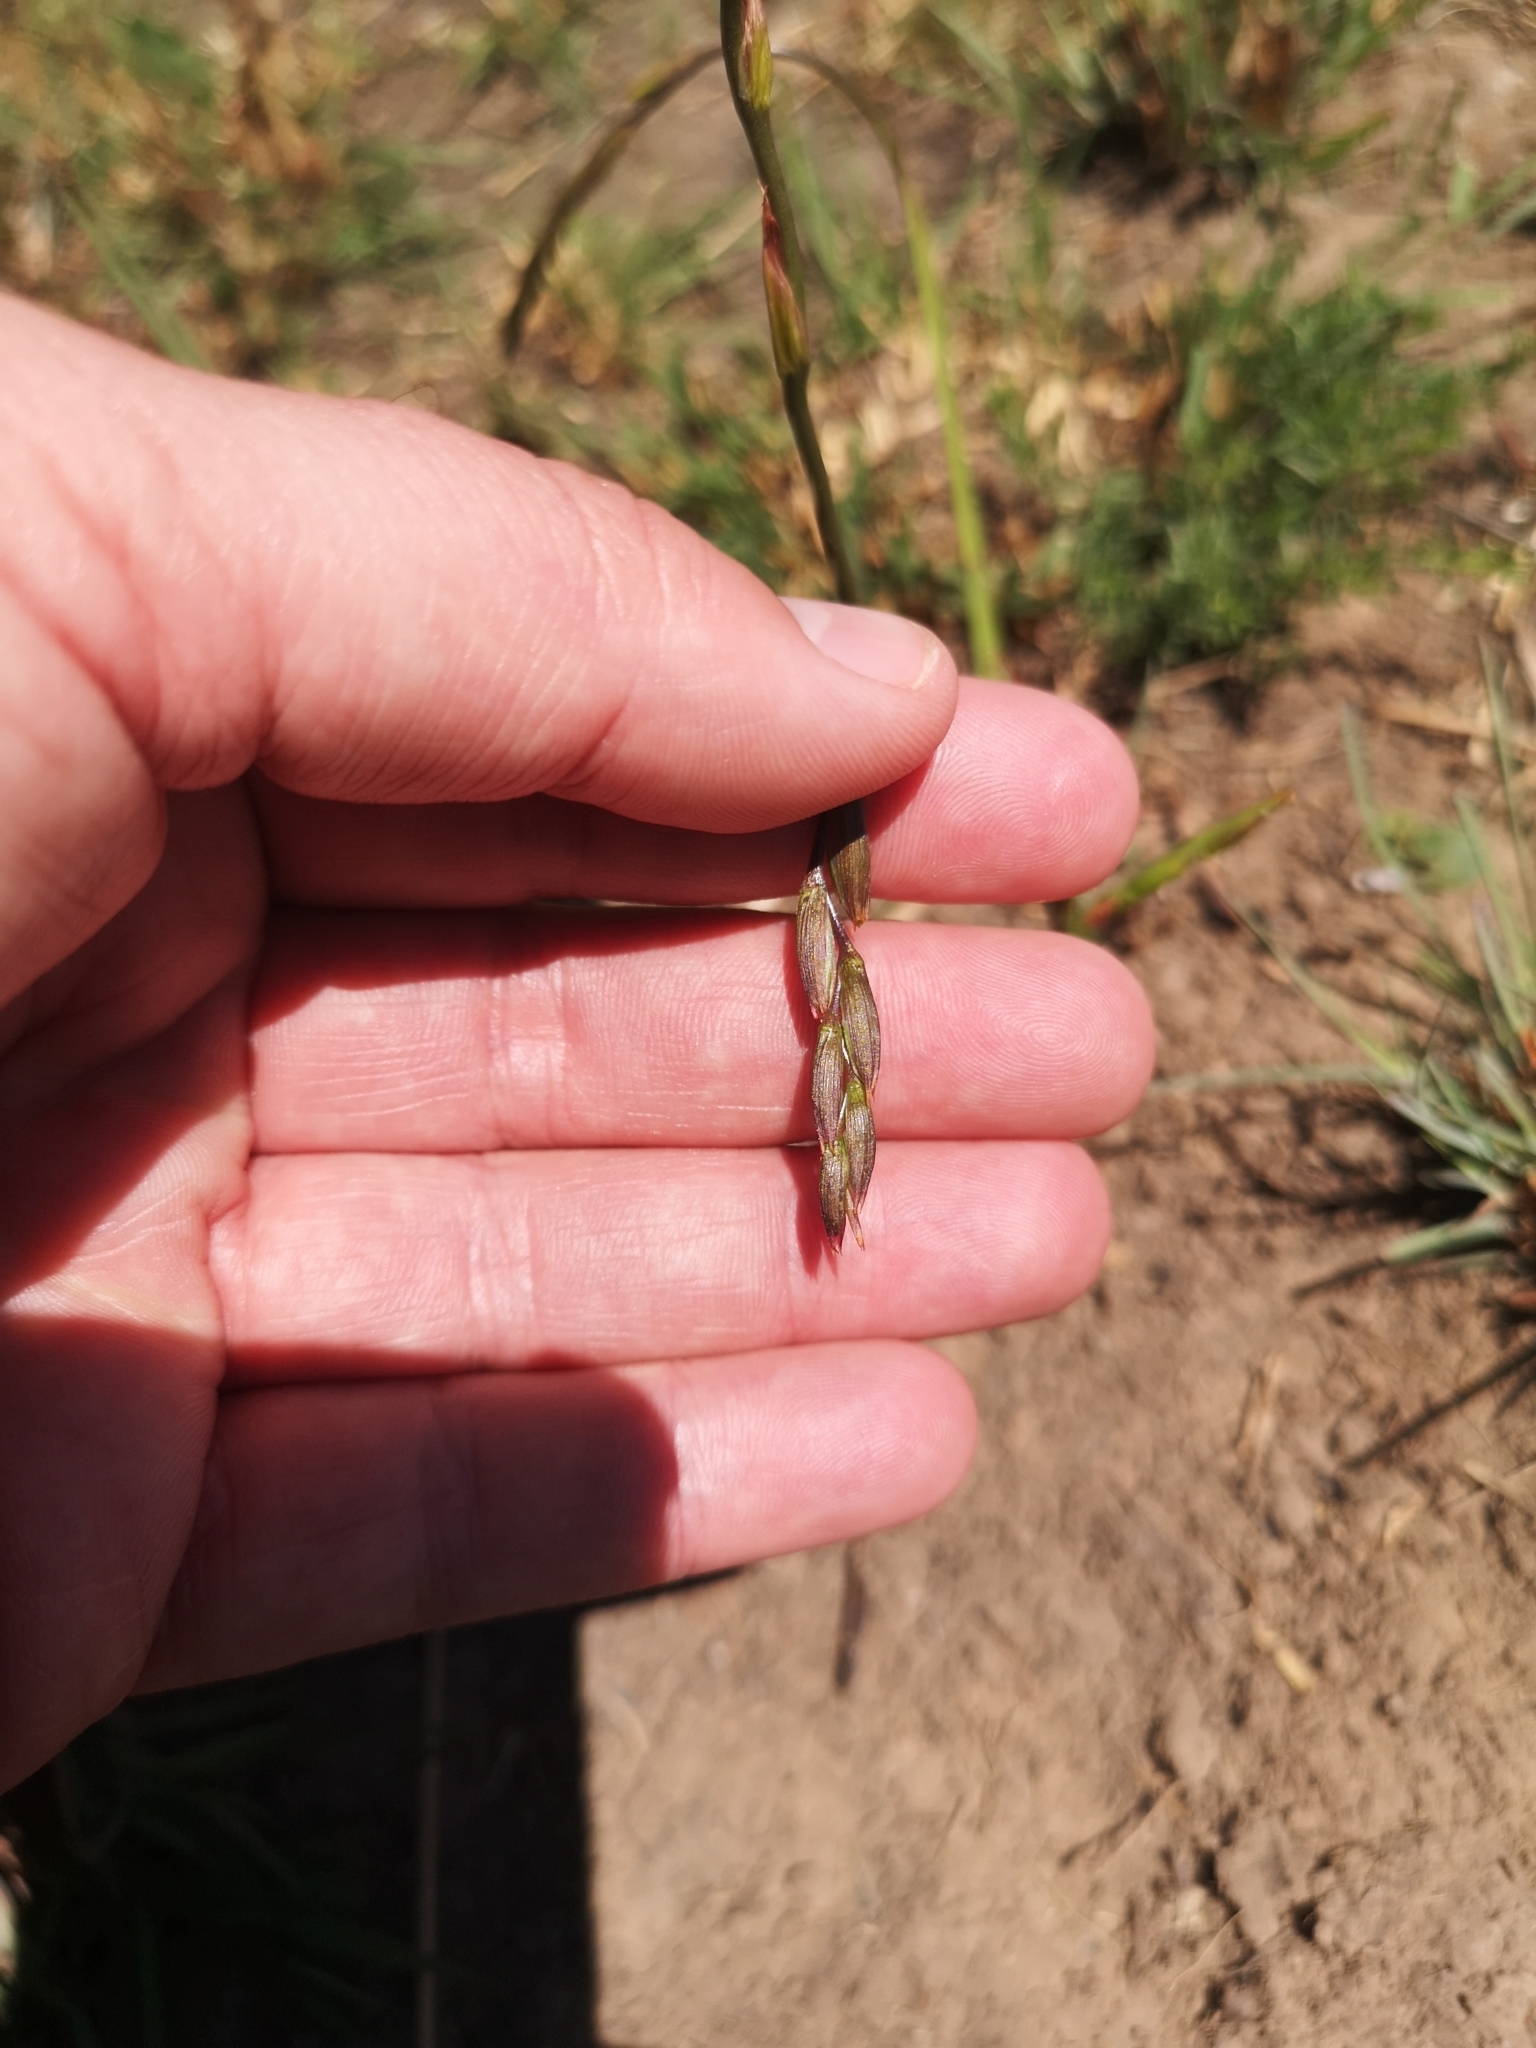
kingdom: Plantae
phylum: Tracheophyta
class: Liliopsida
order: Asparagales
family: Iridaceae
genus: Tritonia
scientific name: Tritonia gladiolaris
